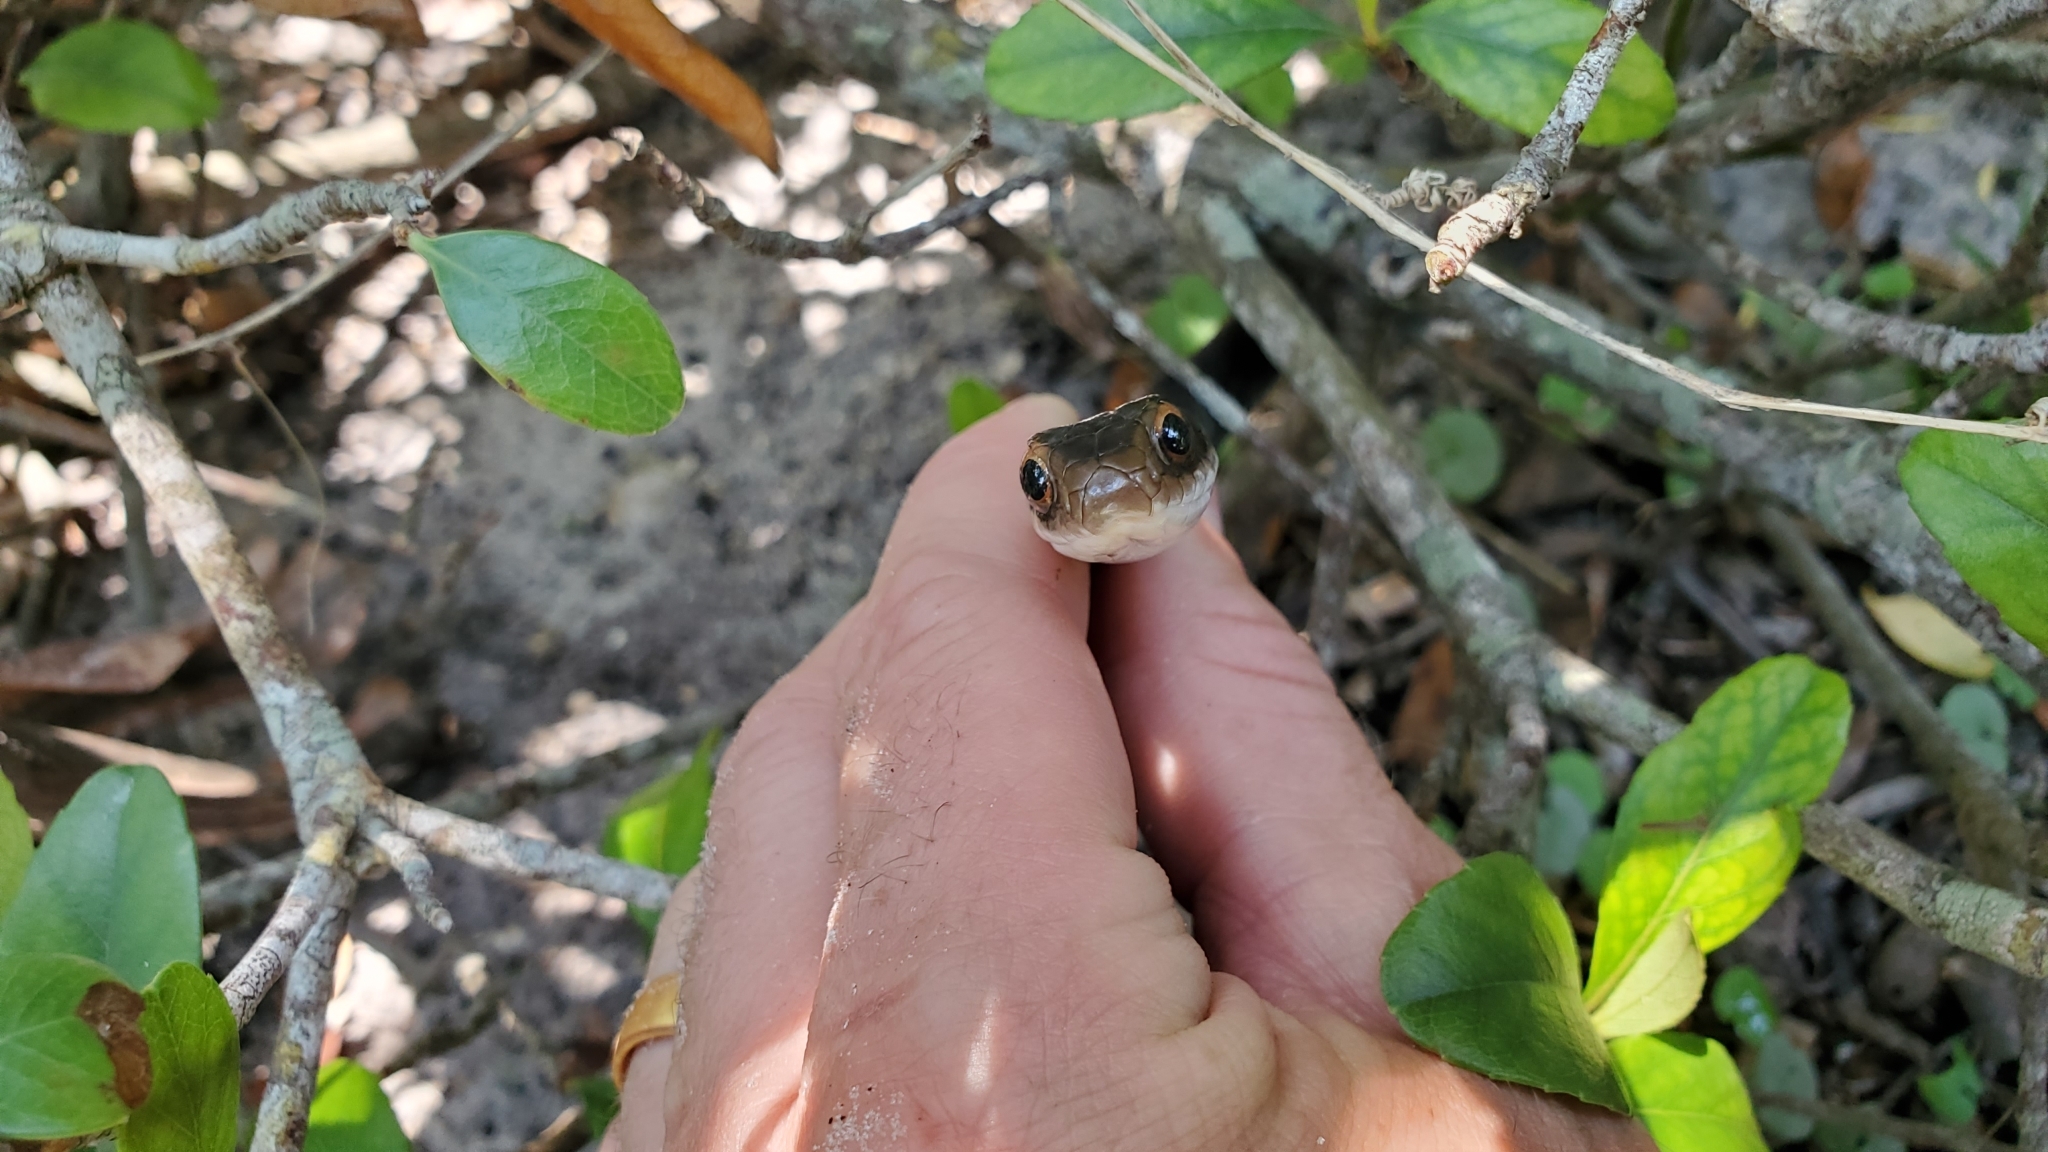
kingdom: Animalia
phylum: Chordata
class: Squamata
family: Colubridae
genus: Coluber
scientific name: Coluber constrictor
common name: Eastern racer
